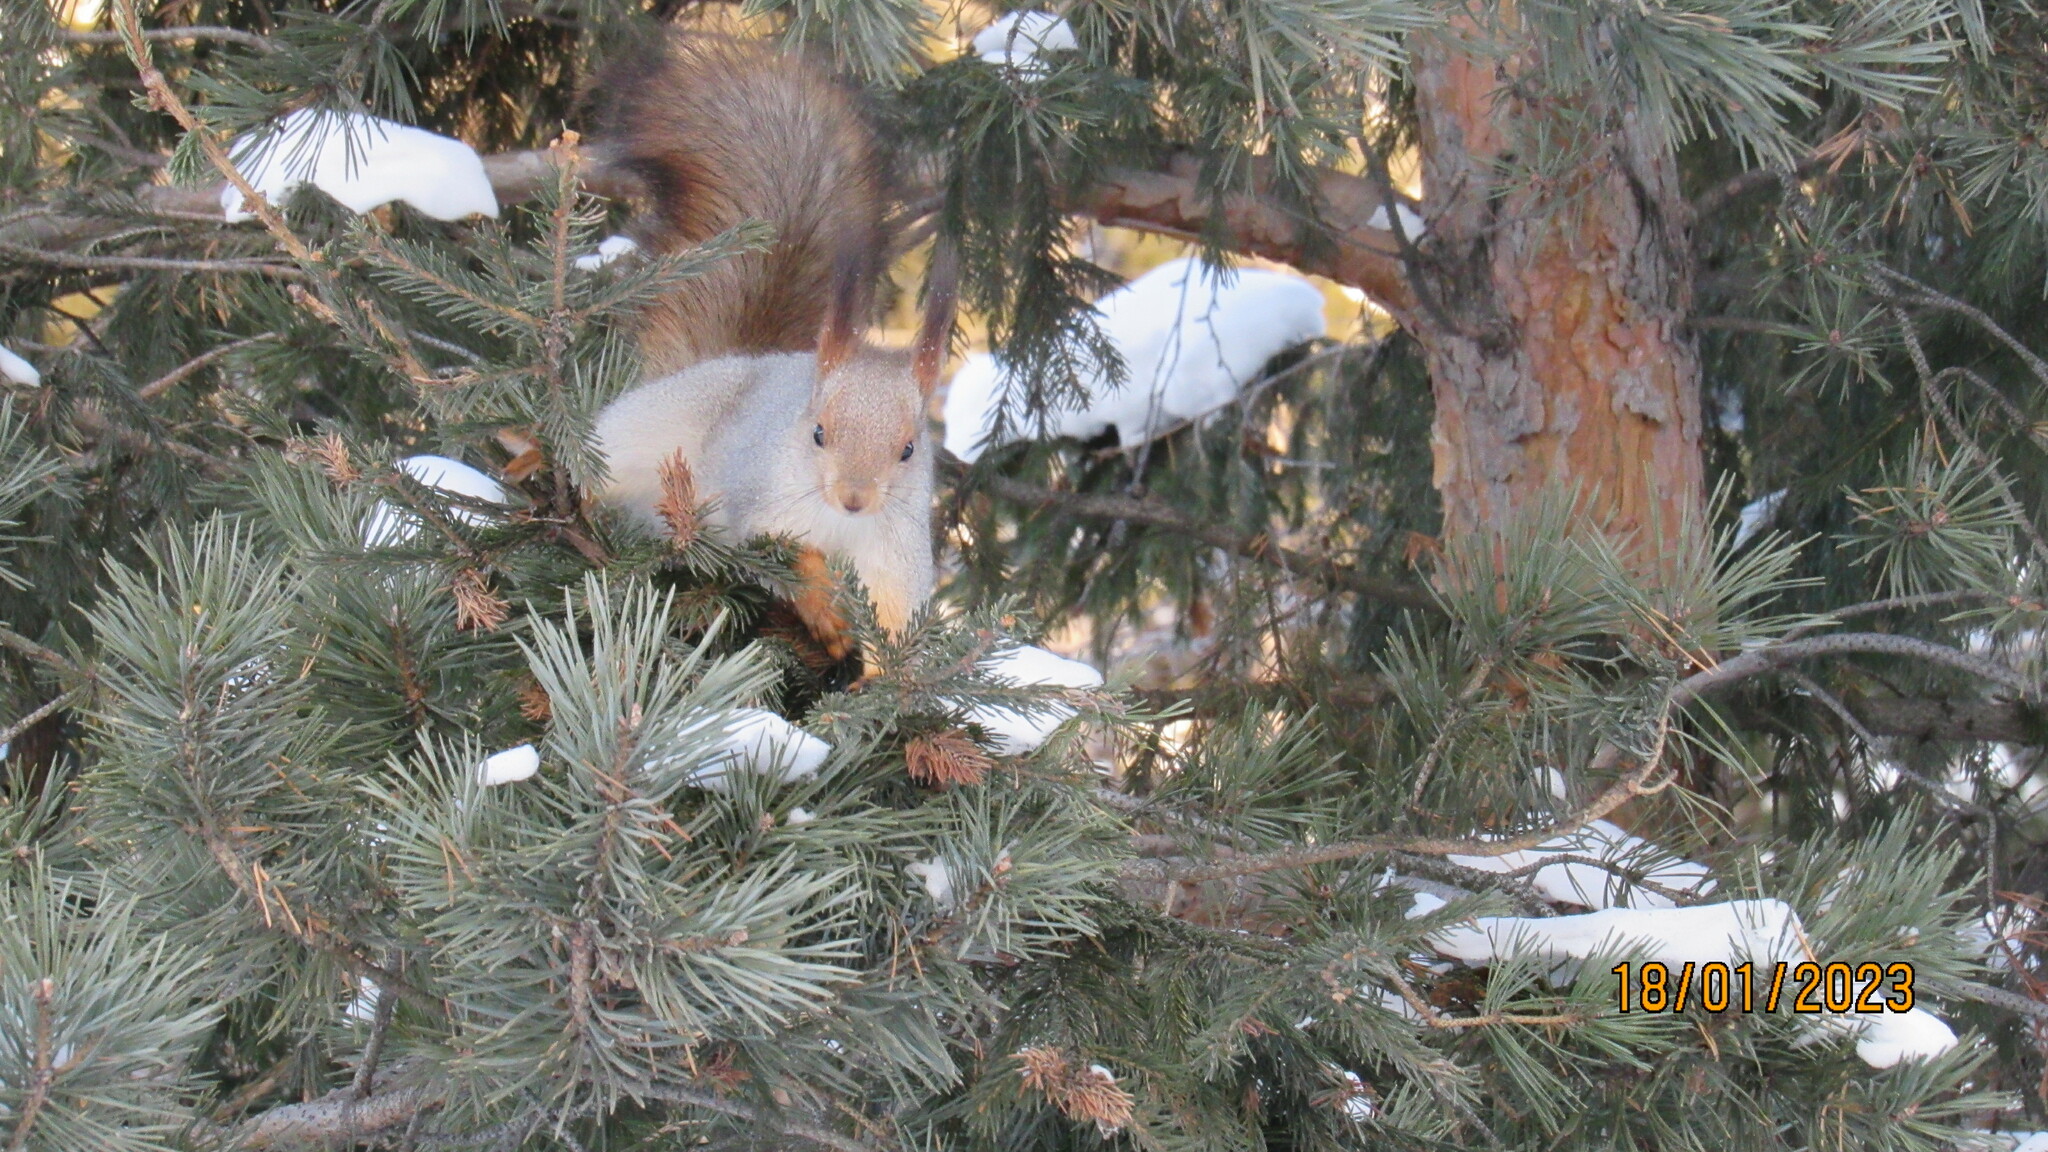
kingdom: Animalia
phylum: Chordata
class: Mammalia
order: Rodentia
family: Sciuridae
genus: Sciurus
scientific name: Sciurus vulgaris
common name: Eurasian red squirrel
